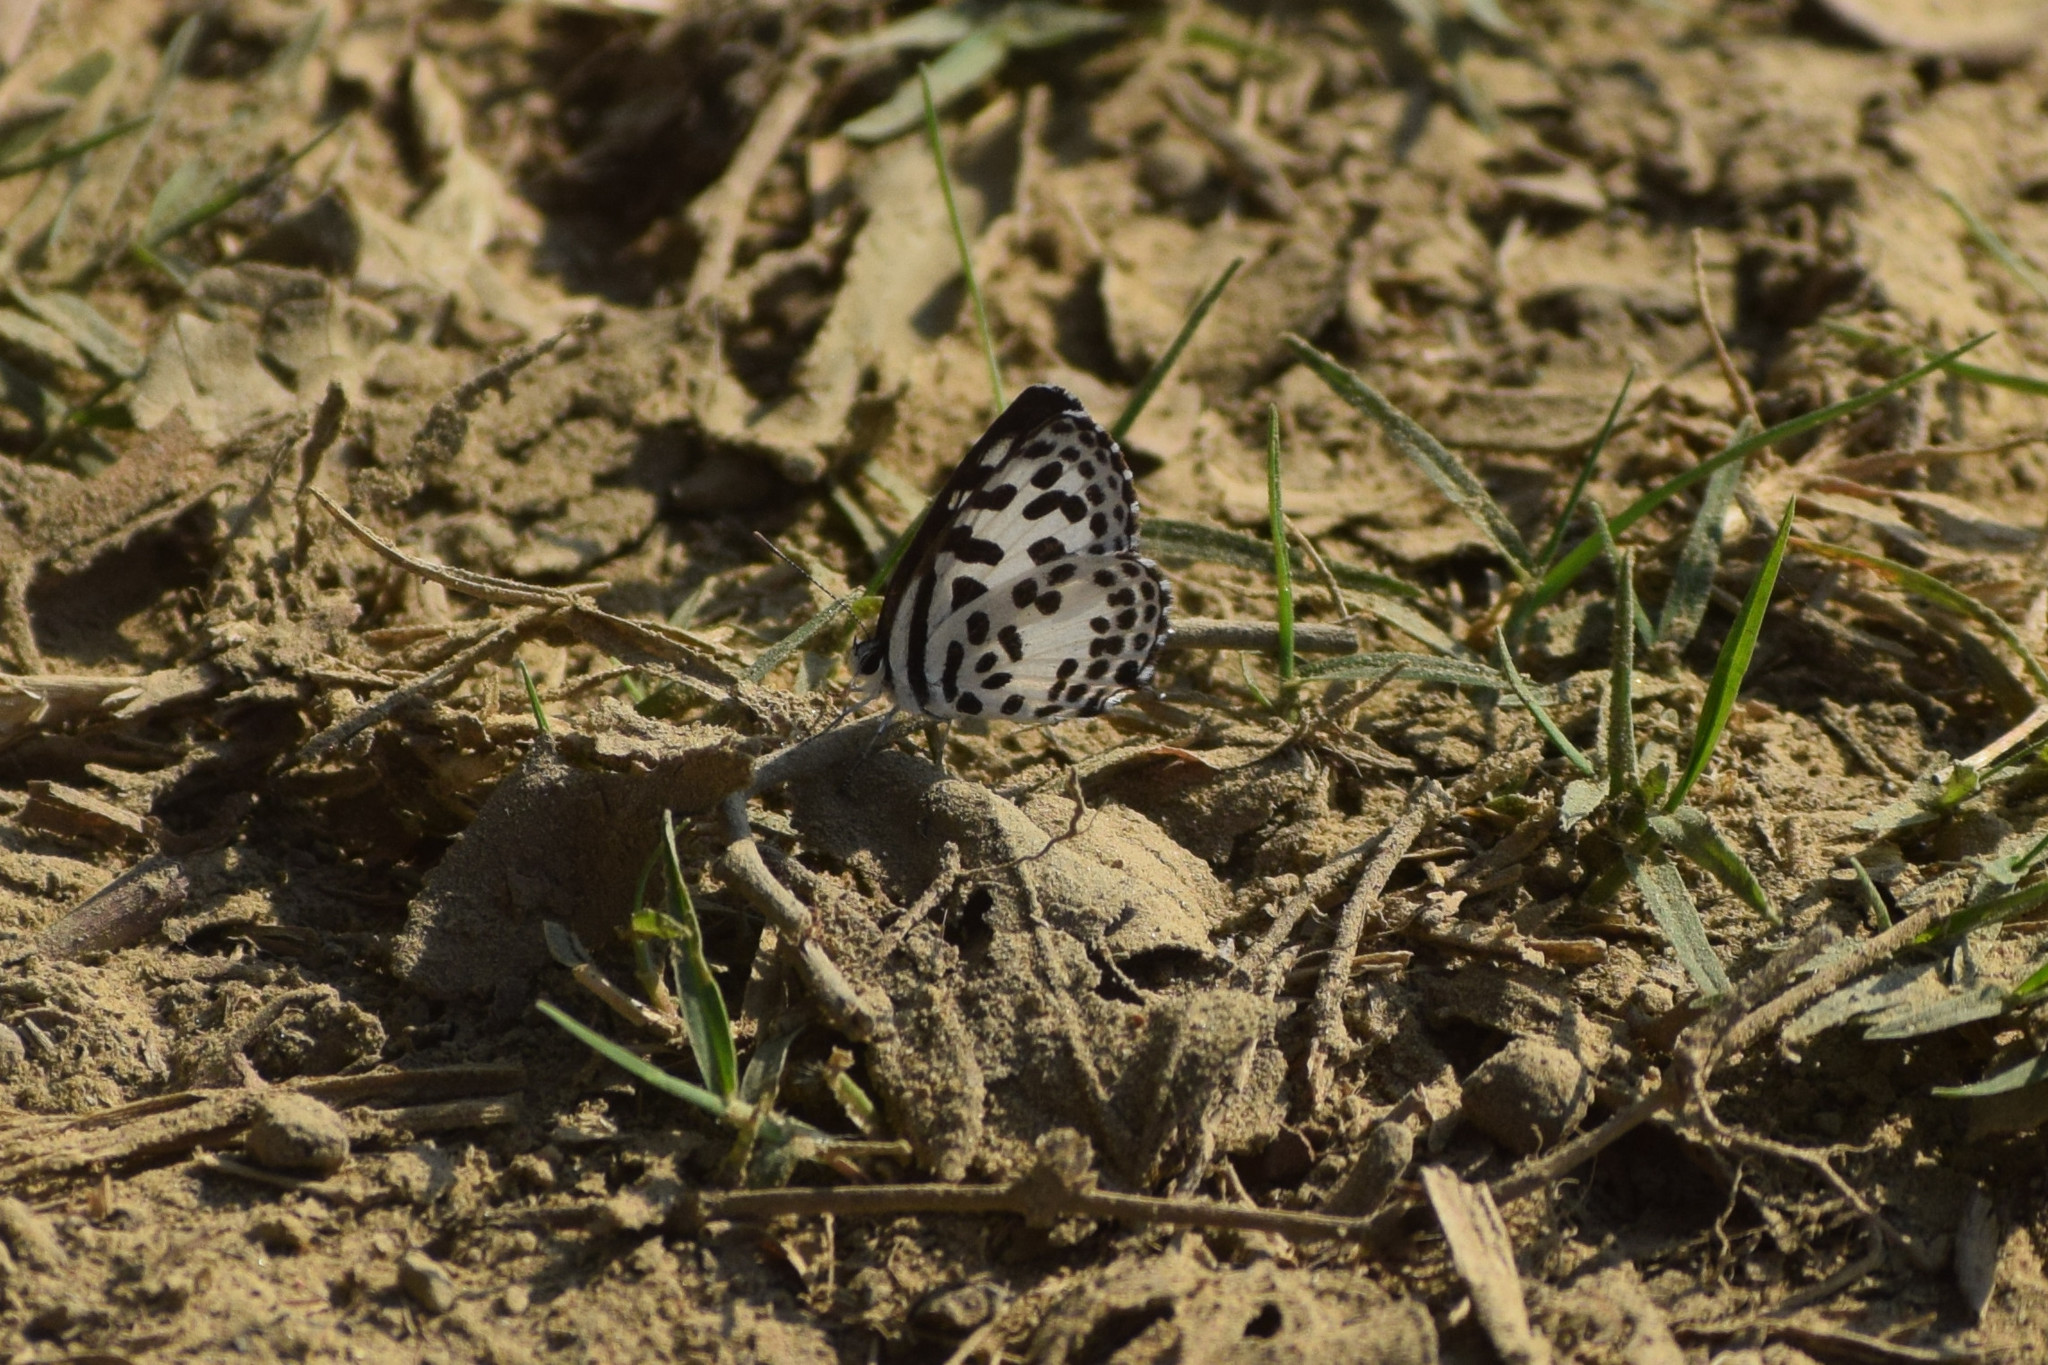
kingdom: Animalia
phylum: Arthropoda
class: Insecta
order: Lepidoptera
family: Lycaenidae
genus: Castalius
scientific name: Castalius rosimon
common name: Common pierrot
